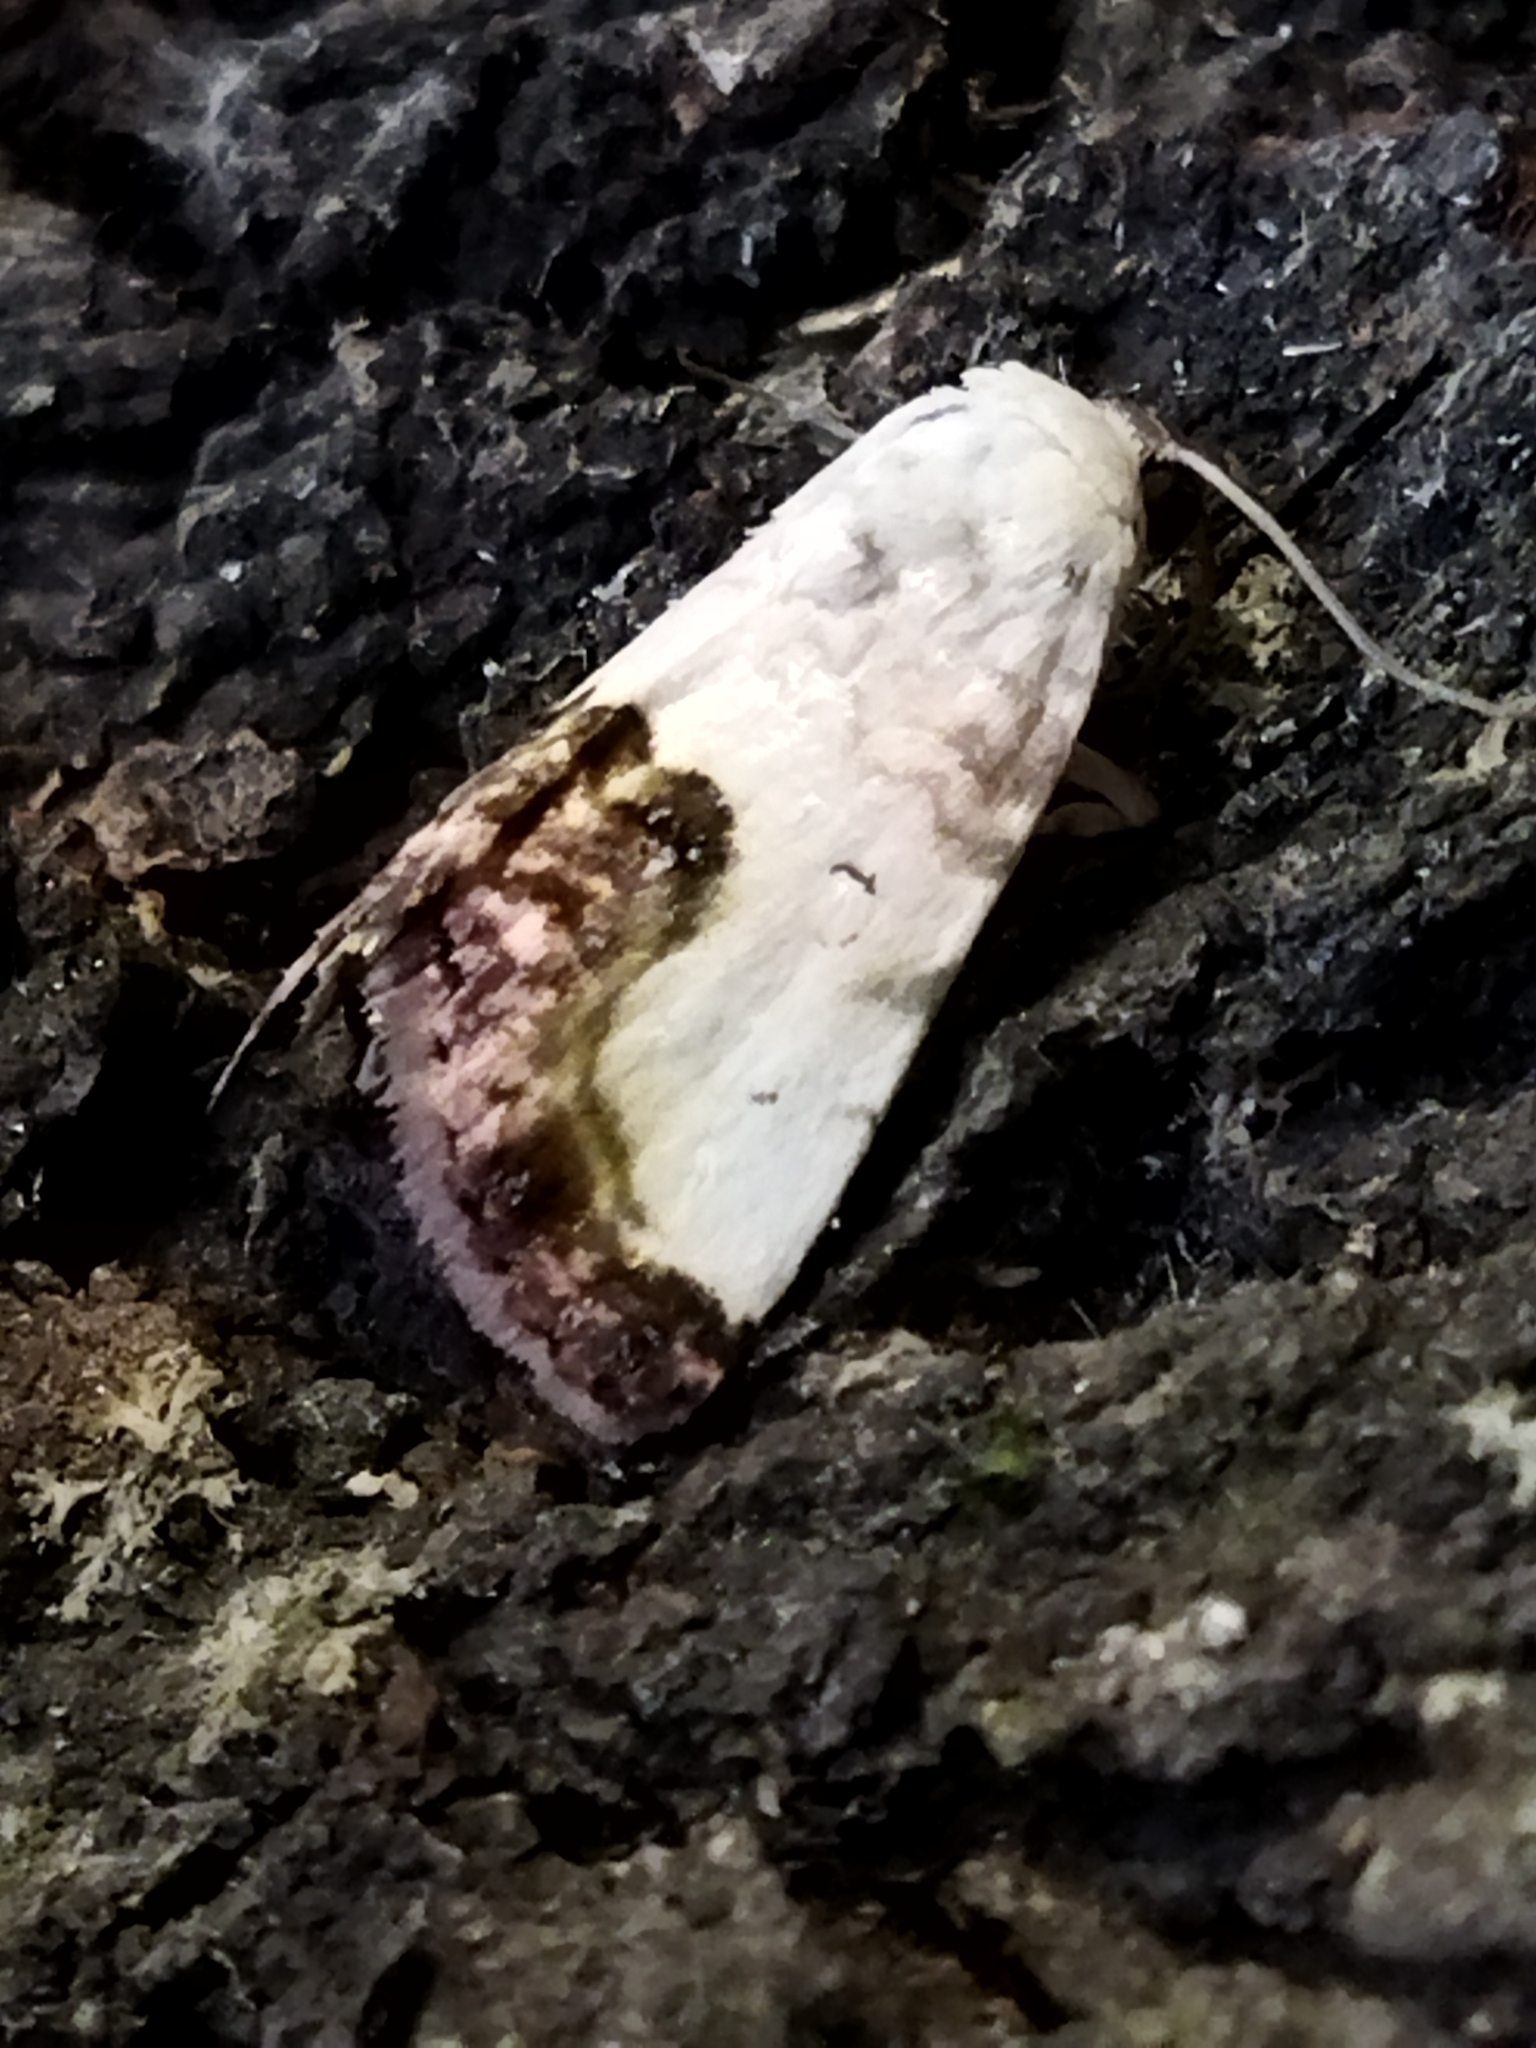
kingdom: Animalia
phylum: Arthropoda
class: Insecta
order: Lepidoptera
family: Noctuidae
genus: Acontia
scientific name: Acontia titania
